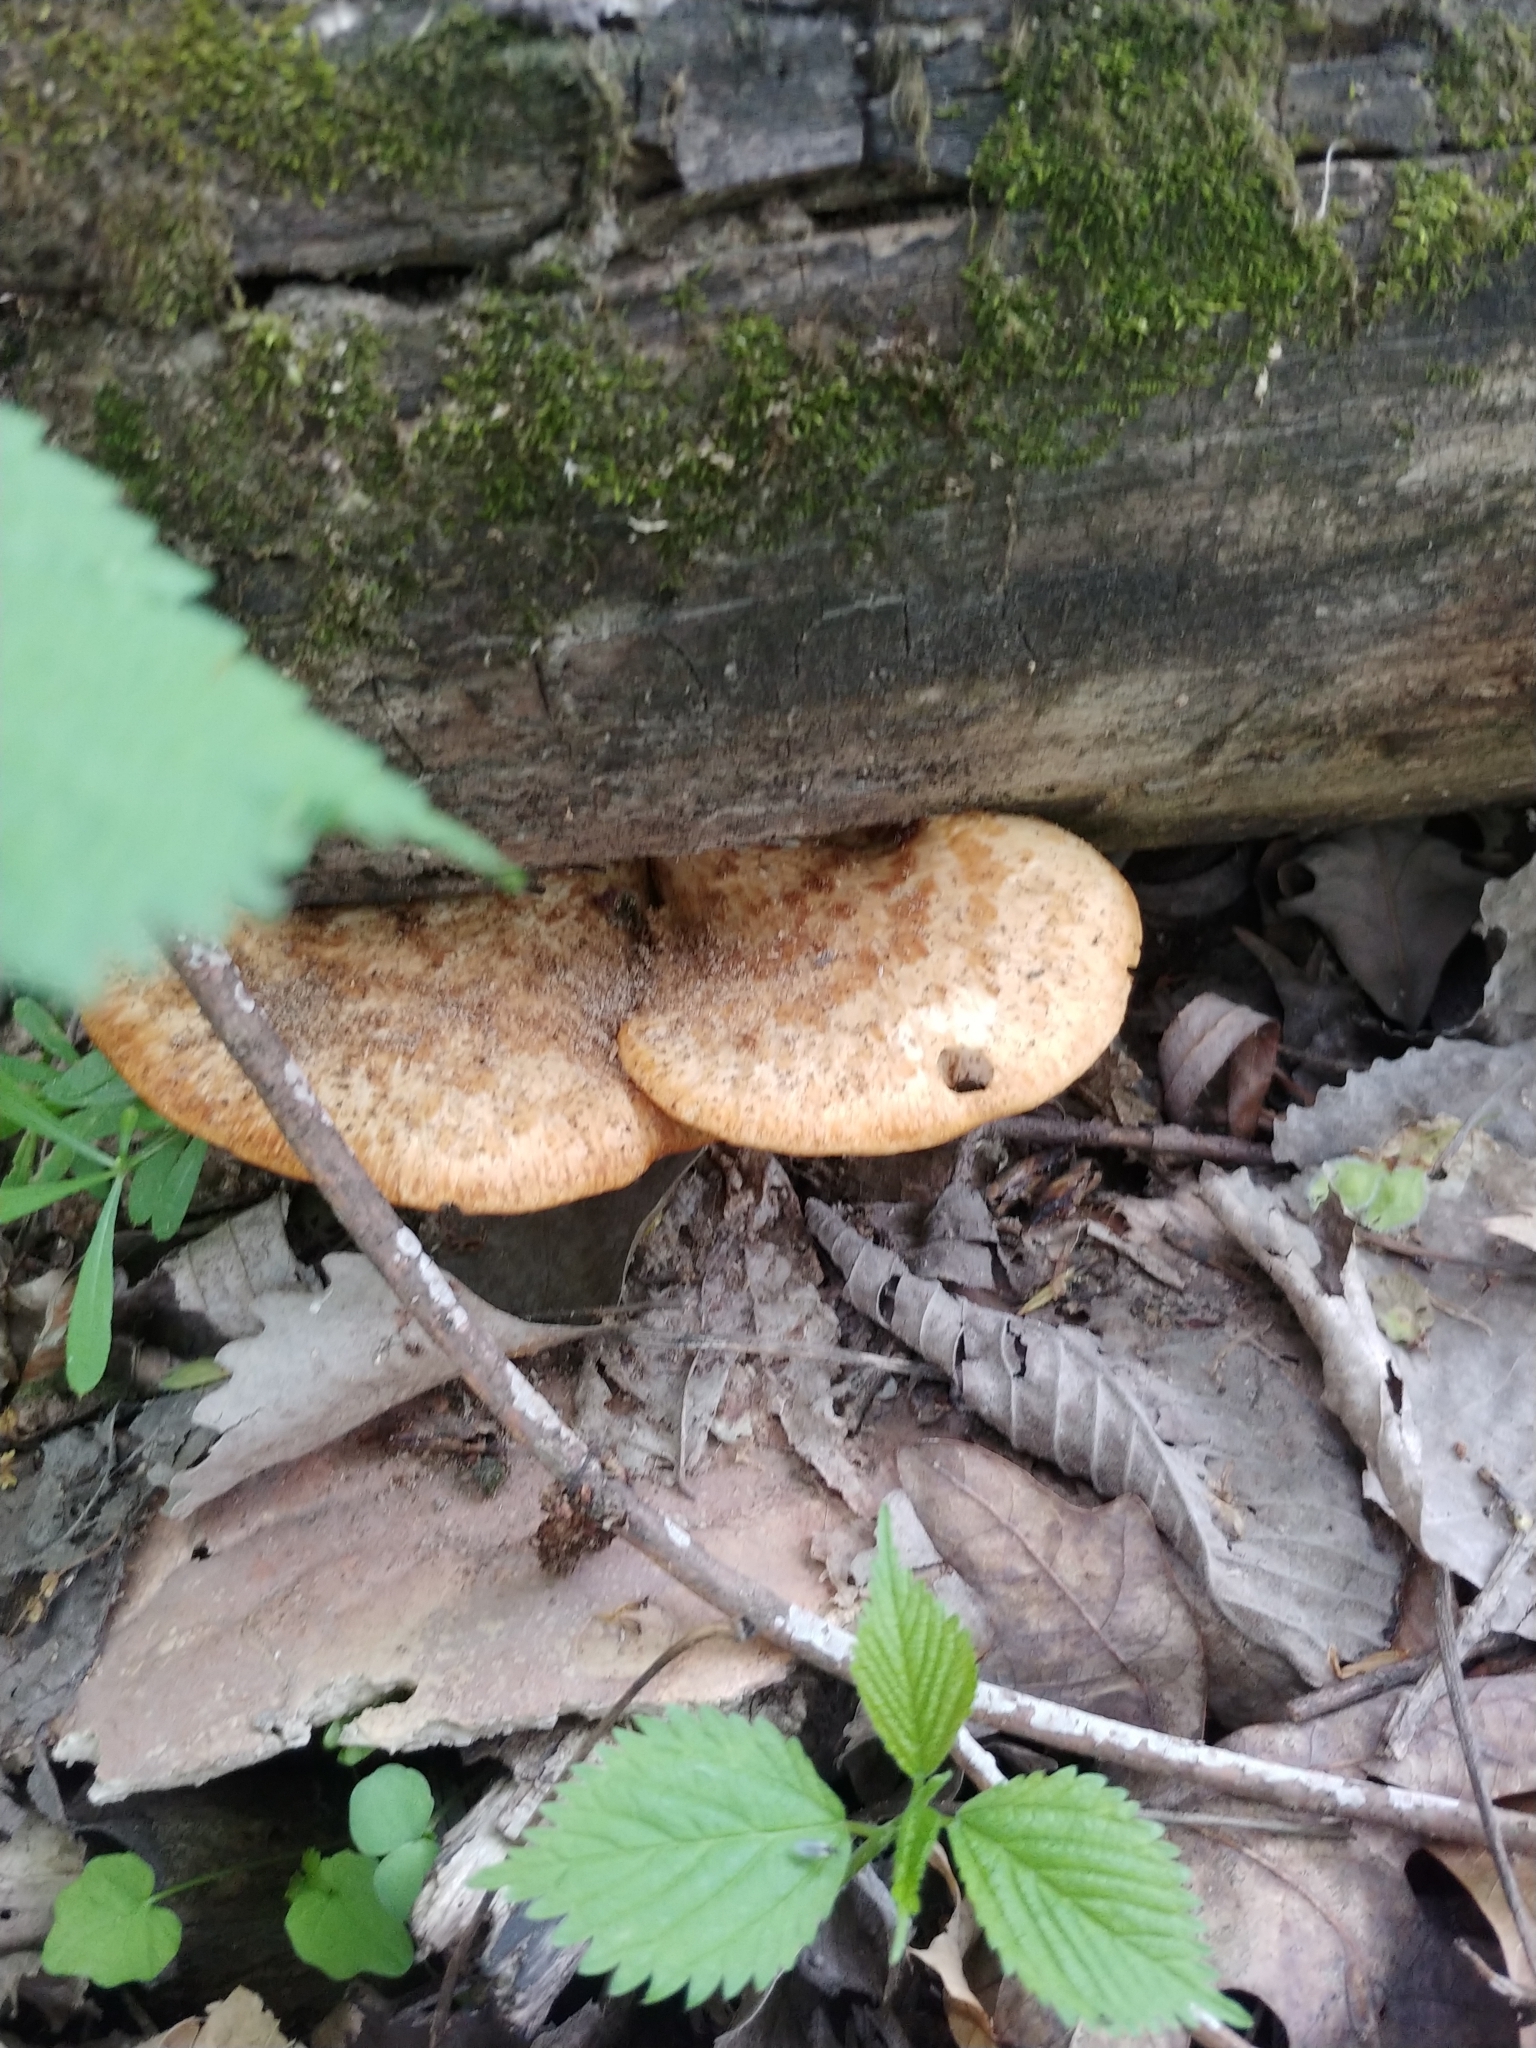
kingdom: Fungi
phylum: Basidiomycota
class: Agaricomycetes
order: Polyporales
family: Polyporaceae
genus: Cerioporus
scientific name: Cerioporus squamosus
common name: Dryad's saddle
